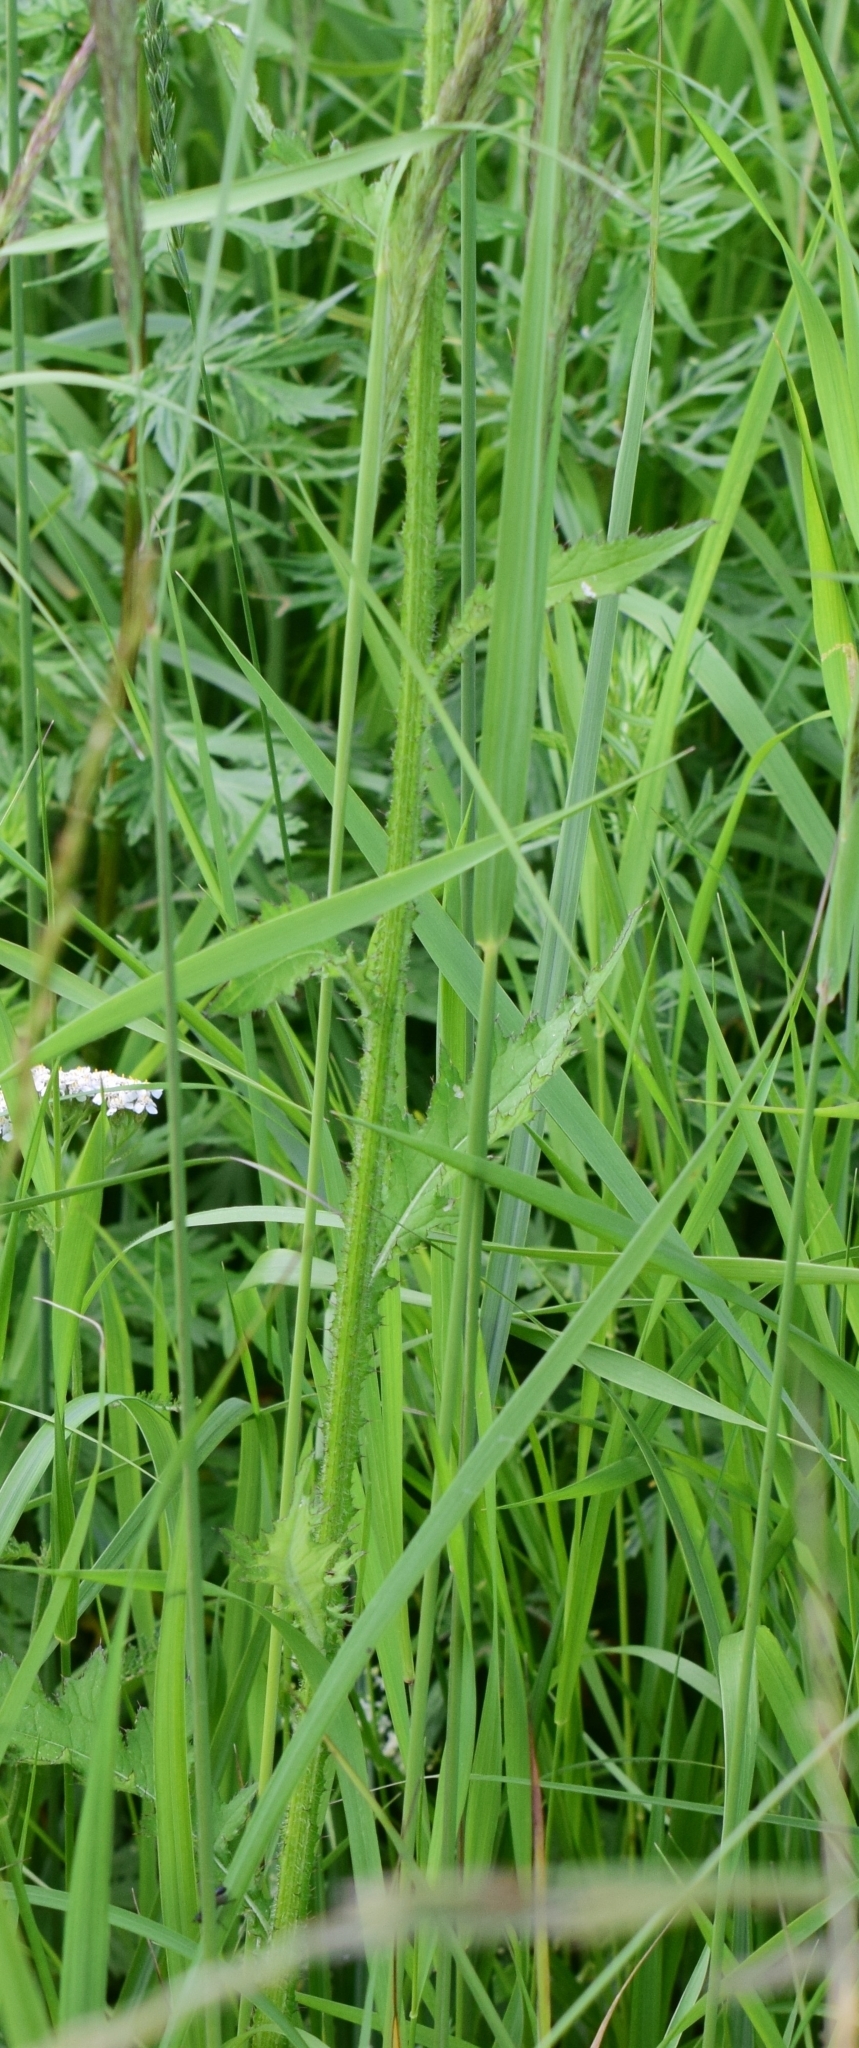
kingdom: Plantae
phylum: Tracheophyta
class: Magnoliopsida
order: Asterales
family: Asteraceae
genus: Carduus
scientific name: Carduus crispus
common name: Welted thistle
